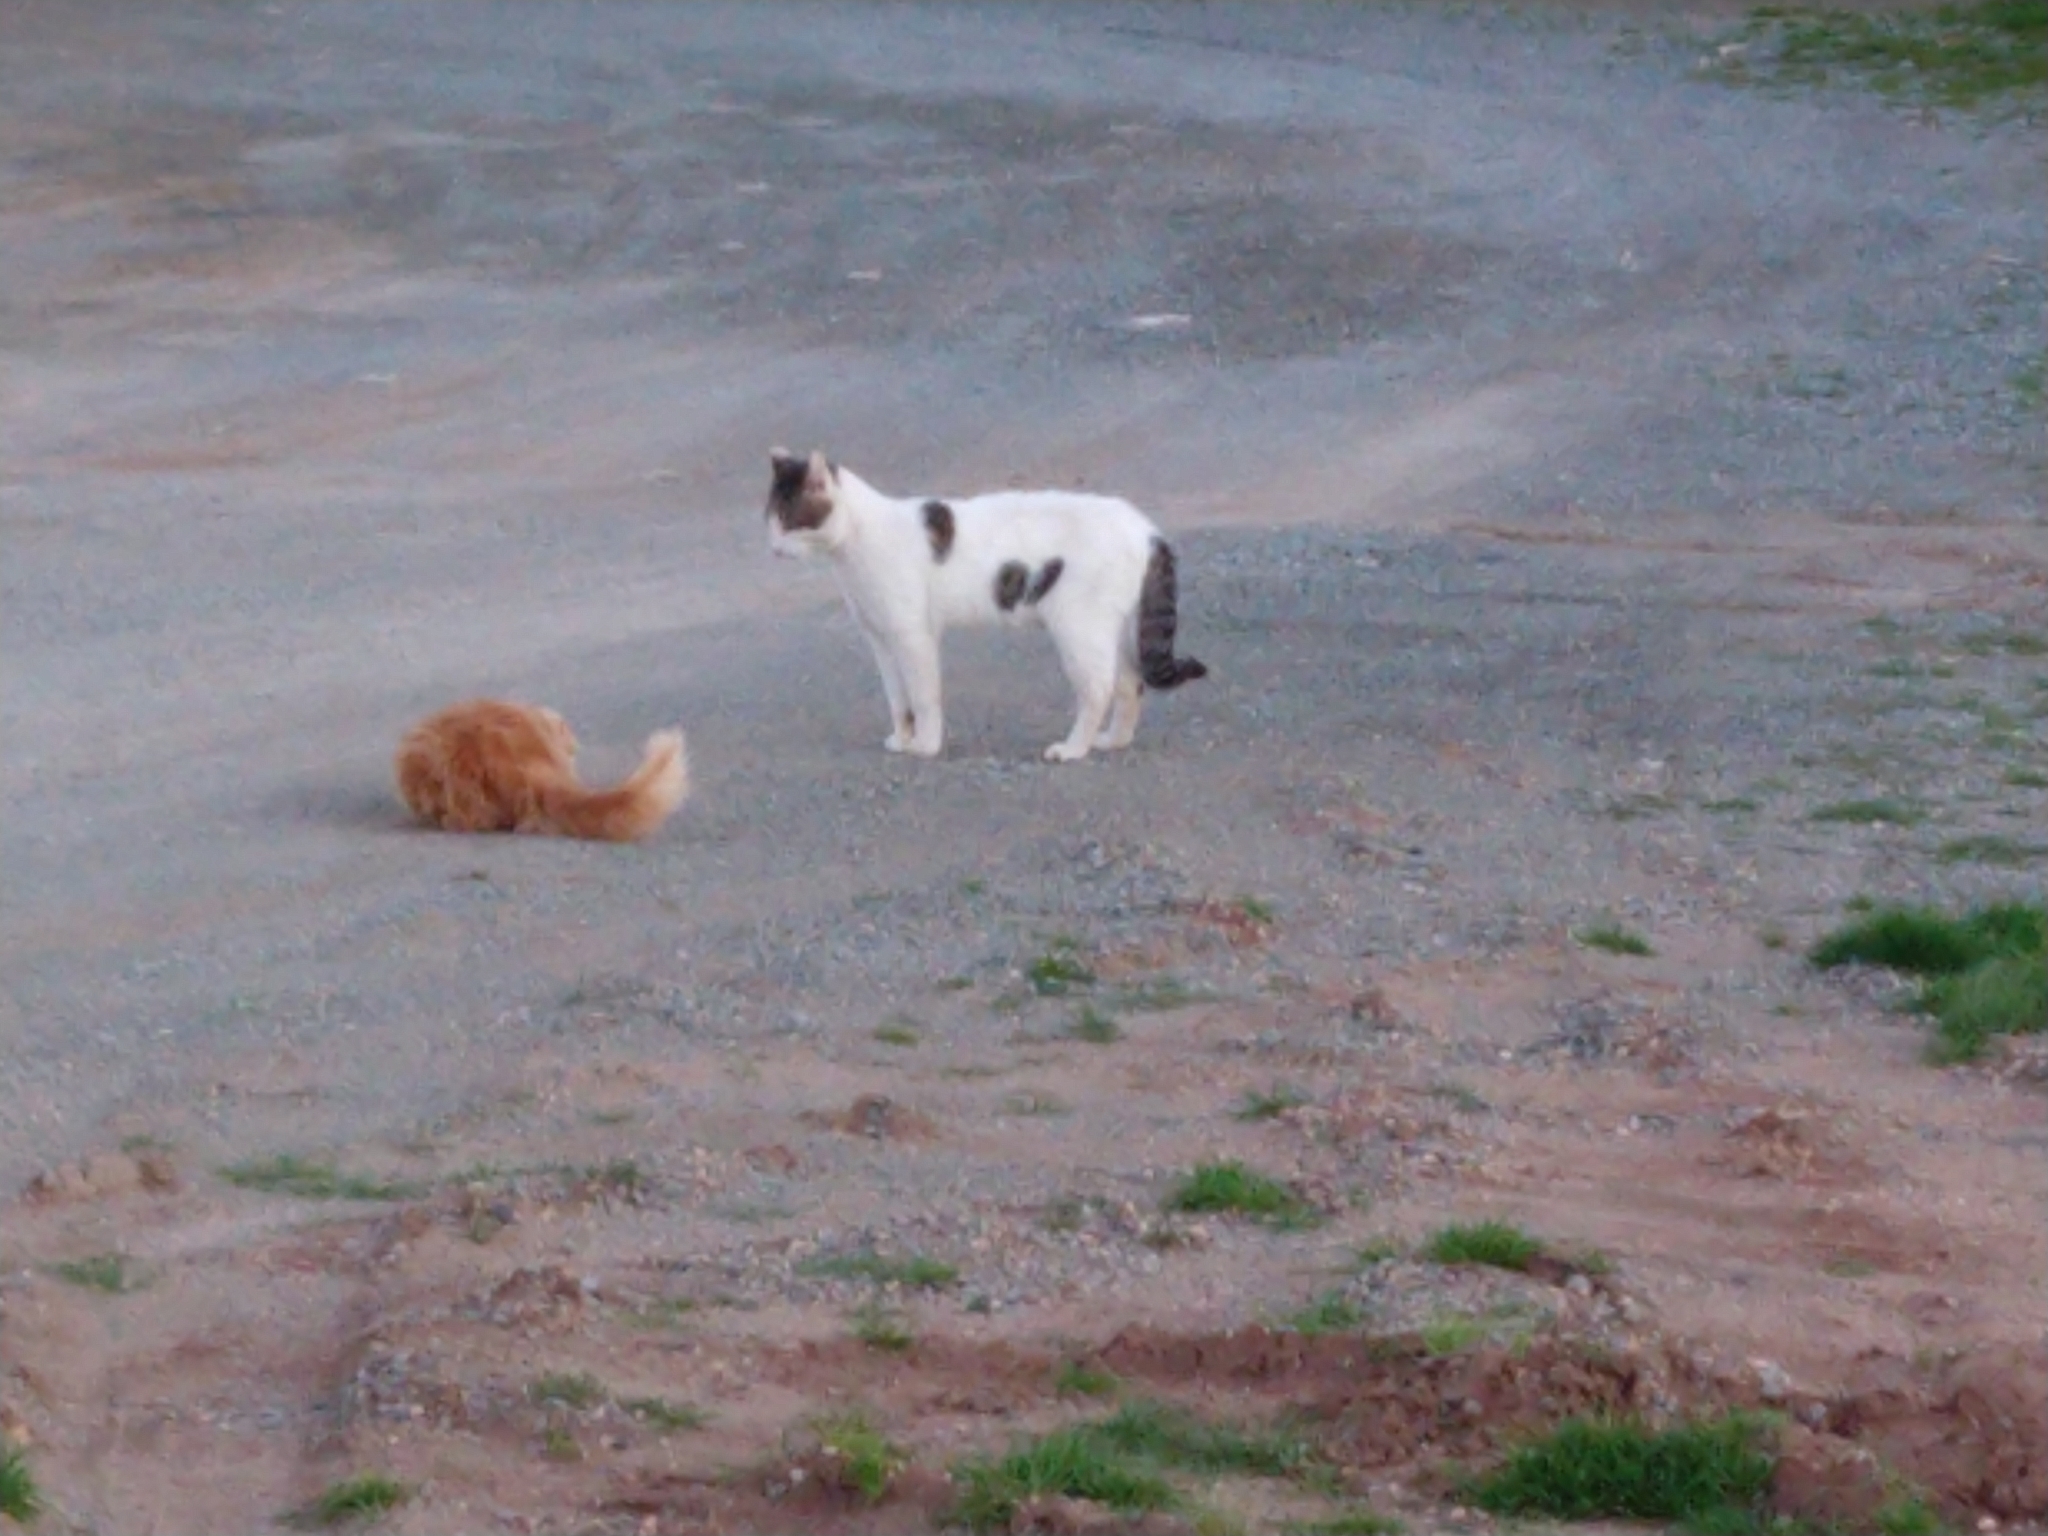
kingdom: Animalia
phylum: Chordata
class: Mammalia
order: Carnivora
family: Felidae
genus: Felis
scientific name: Felis catus
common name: Domestic cat
